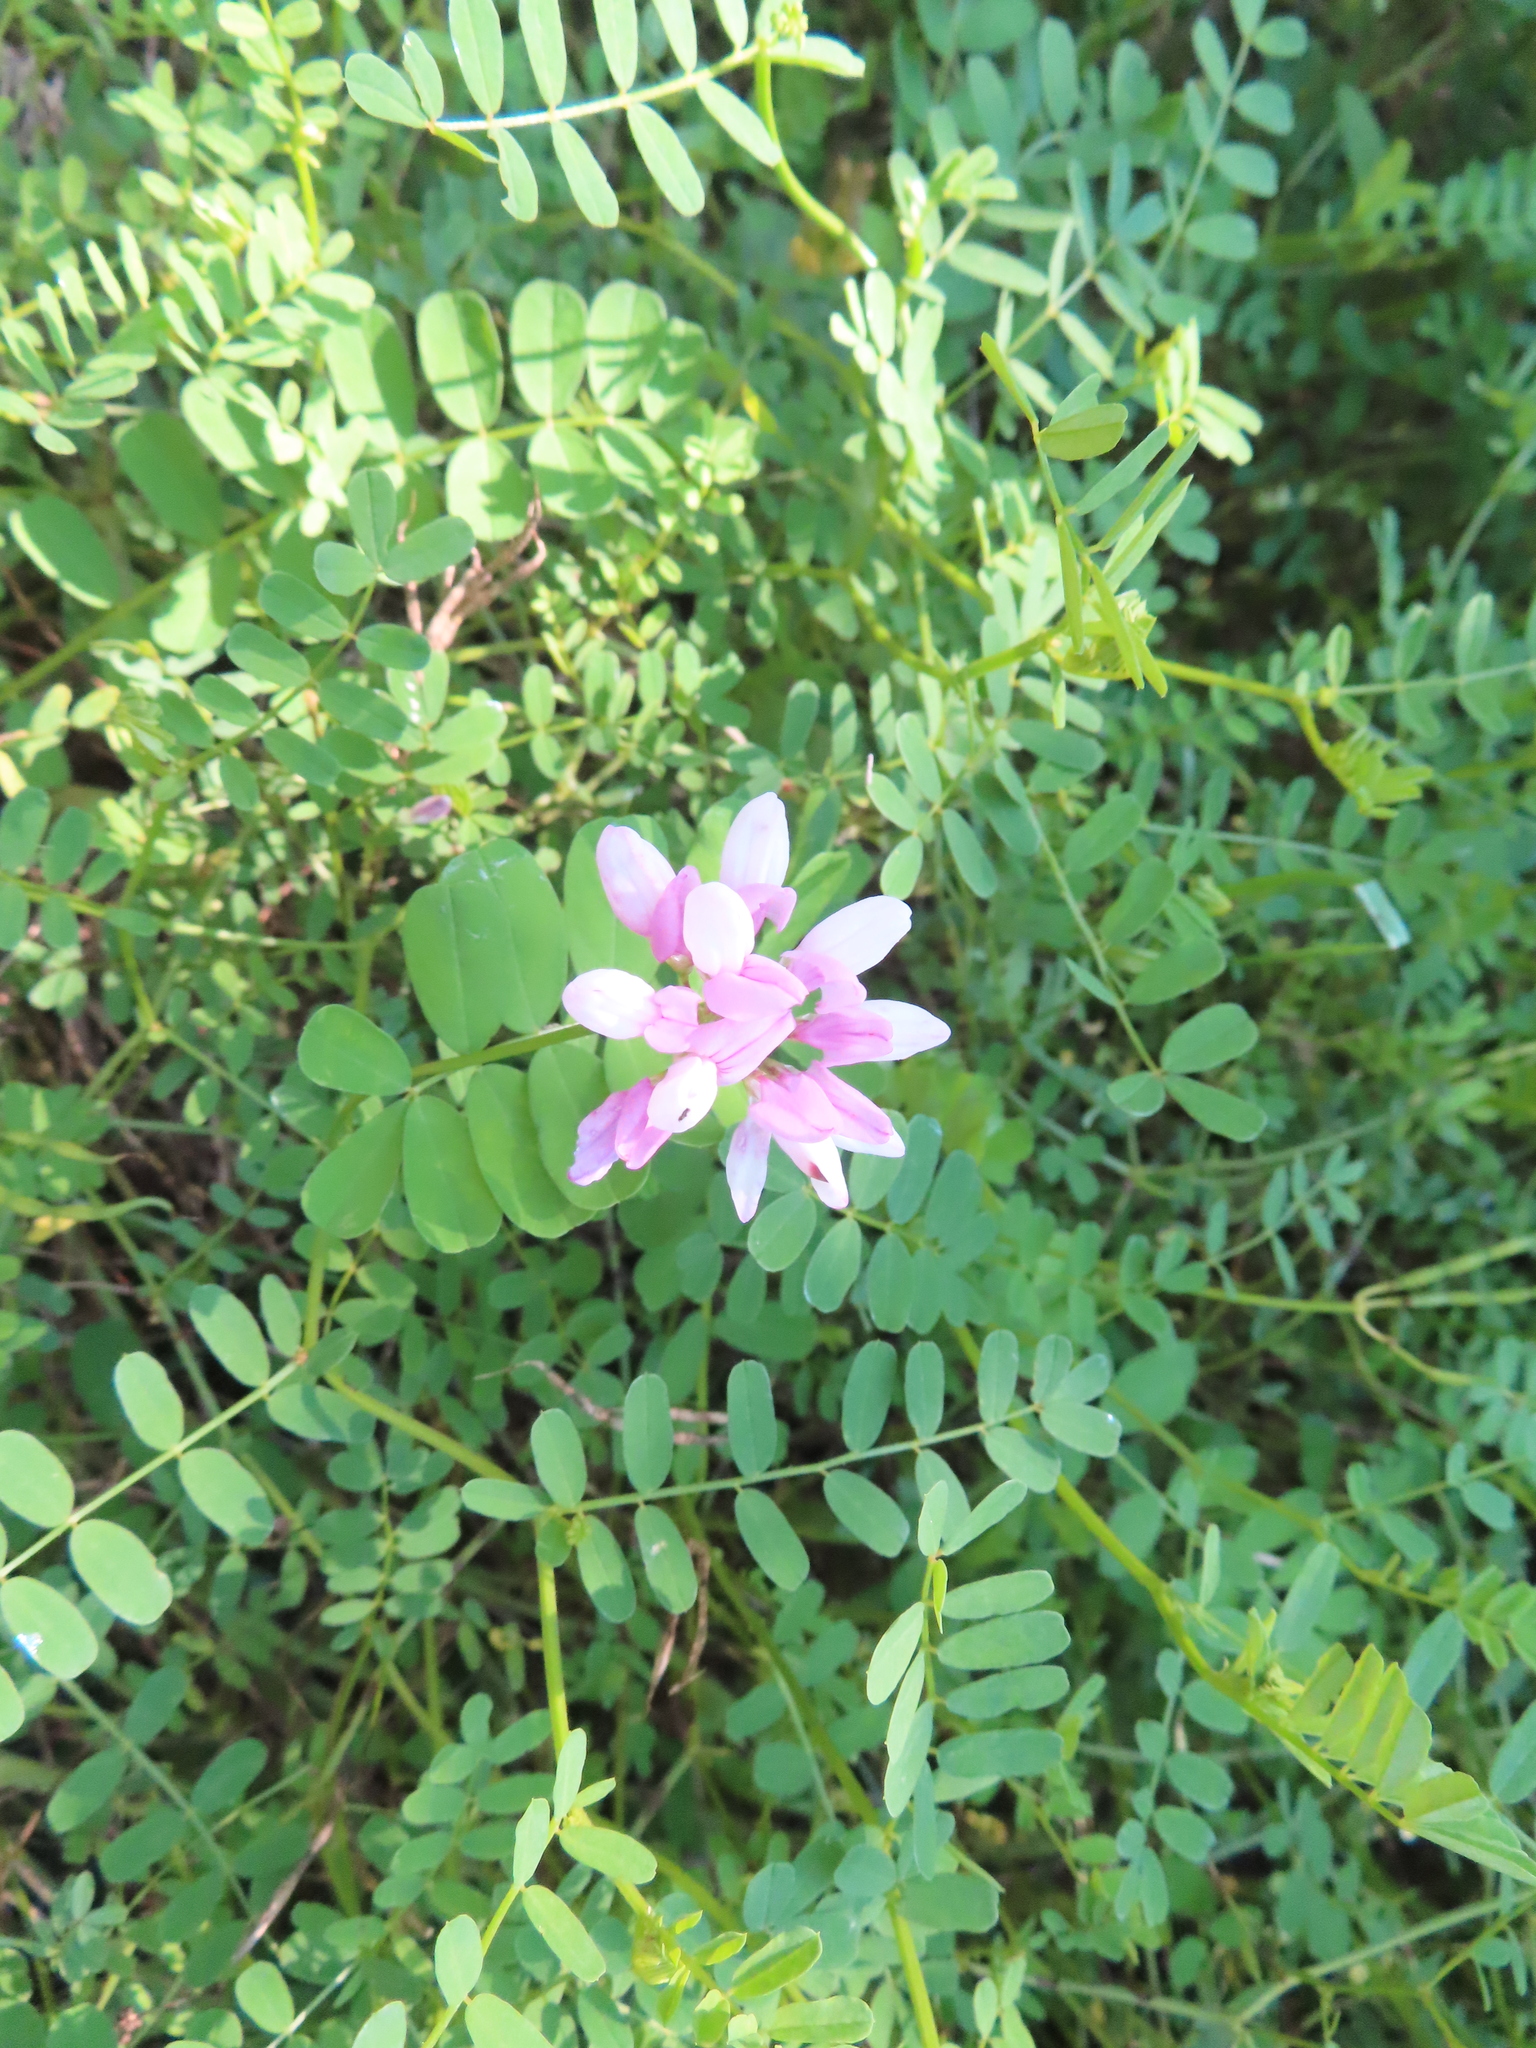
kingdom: Plantae
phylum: Tracheophyta
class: Magnoliopsida
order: Fabales
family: Fabaceae
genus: Coronilla
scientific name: Coronilla varia
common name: Crownvetch
